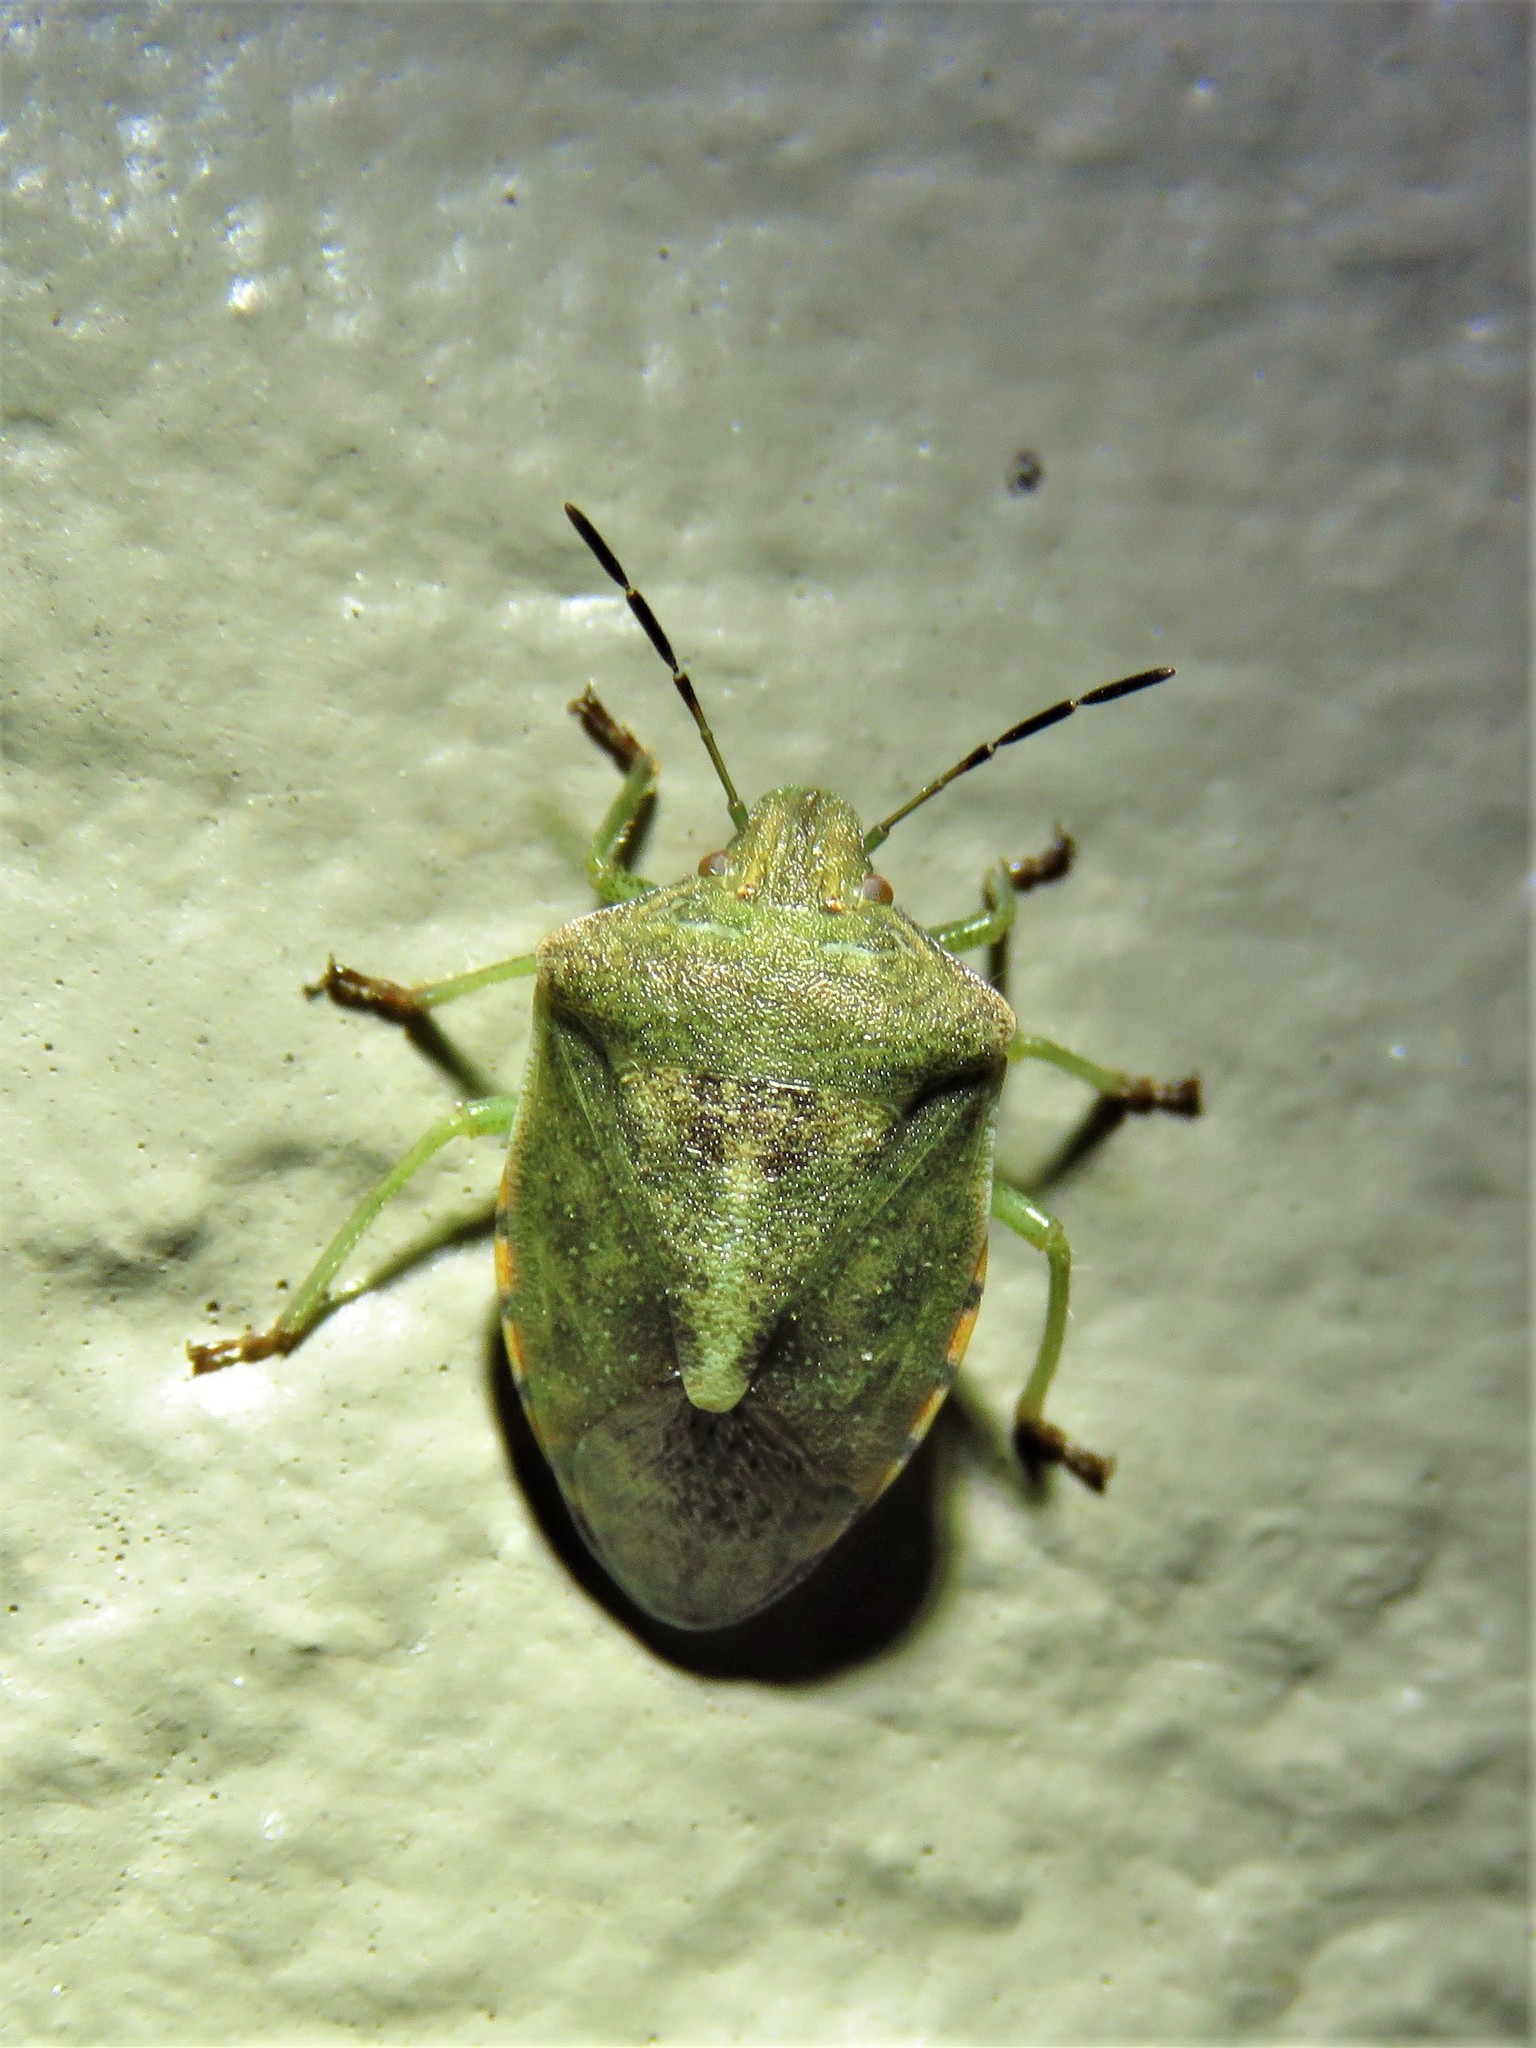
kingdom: Animalia
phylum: Arthropoda
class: Insecta
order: Hemiptera
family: Pentatomidae
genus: Thyanta
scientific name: Thyanta custator
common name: Stink bug
